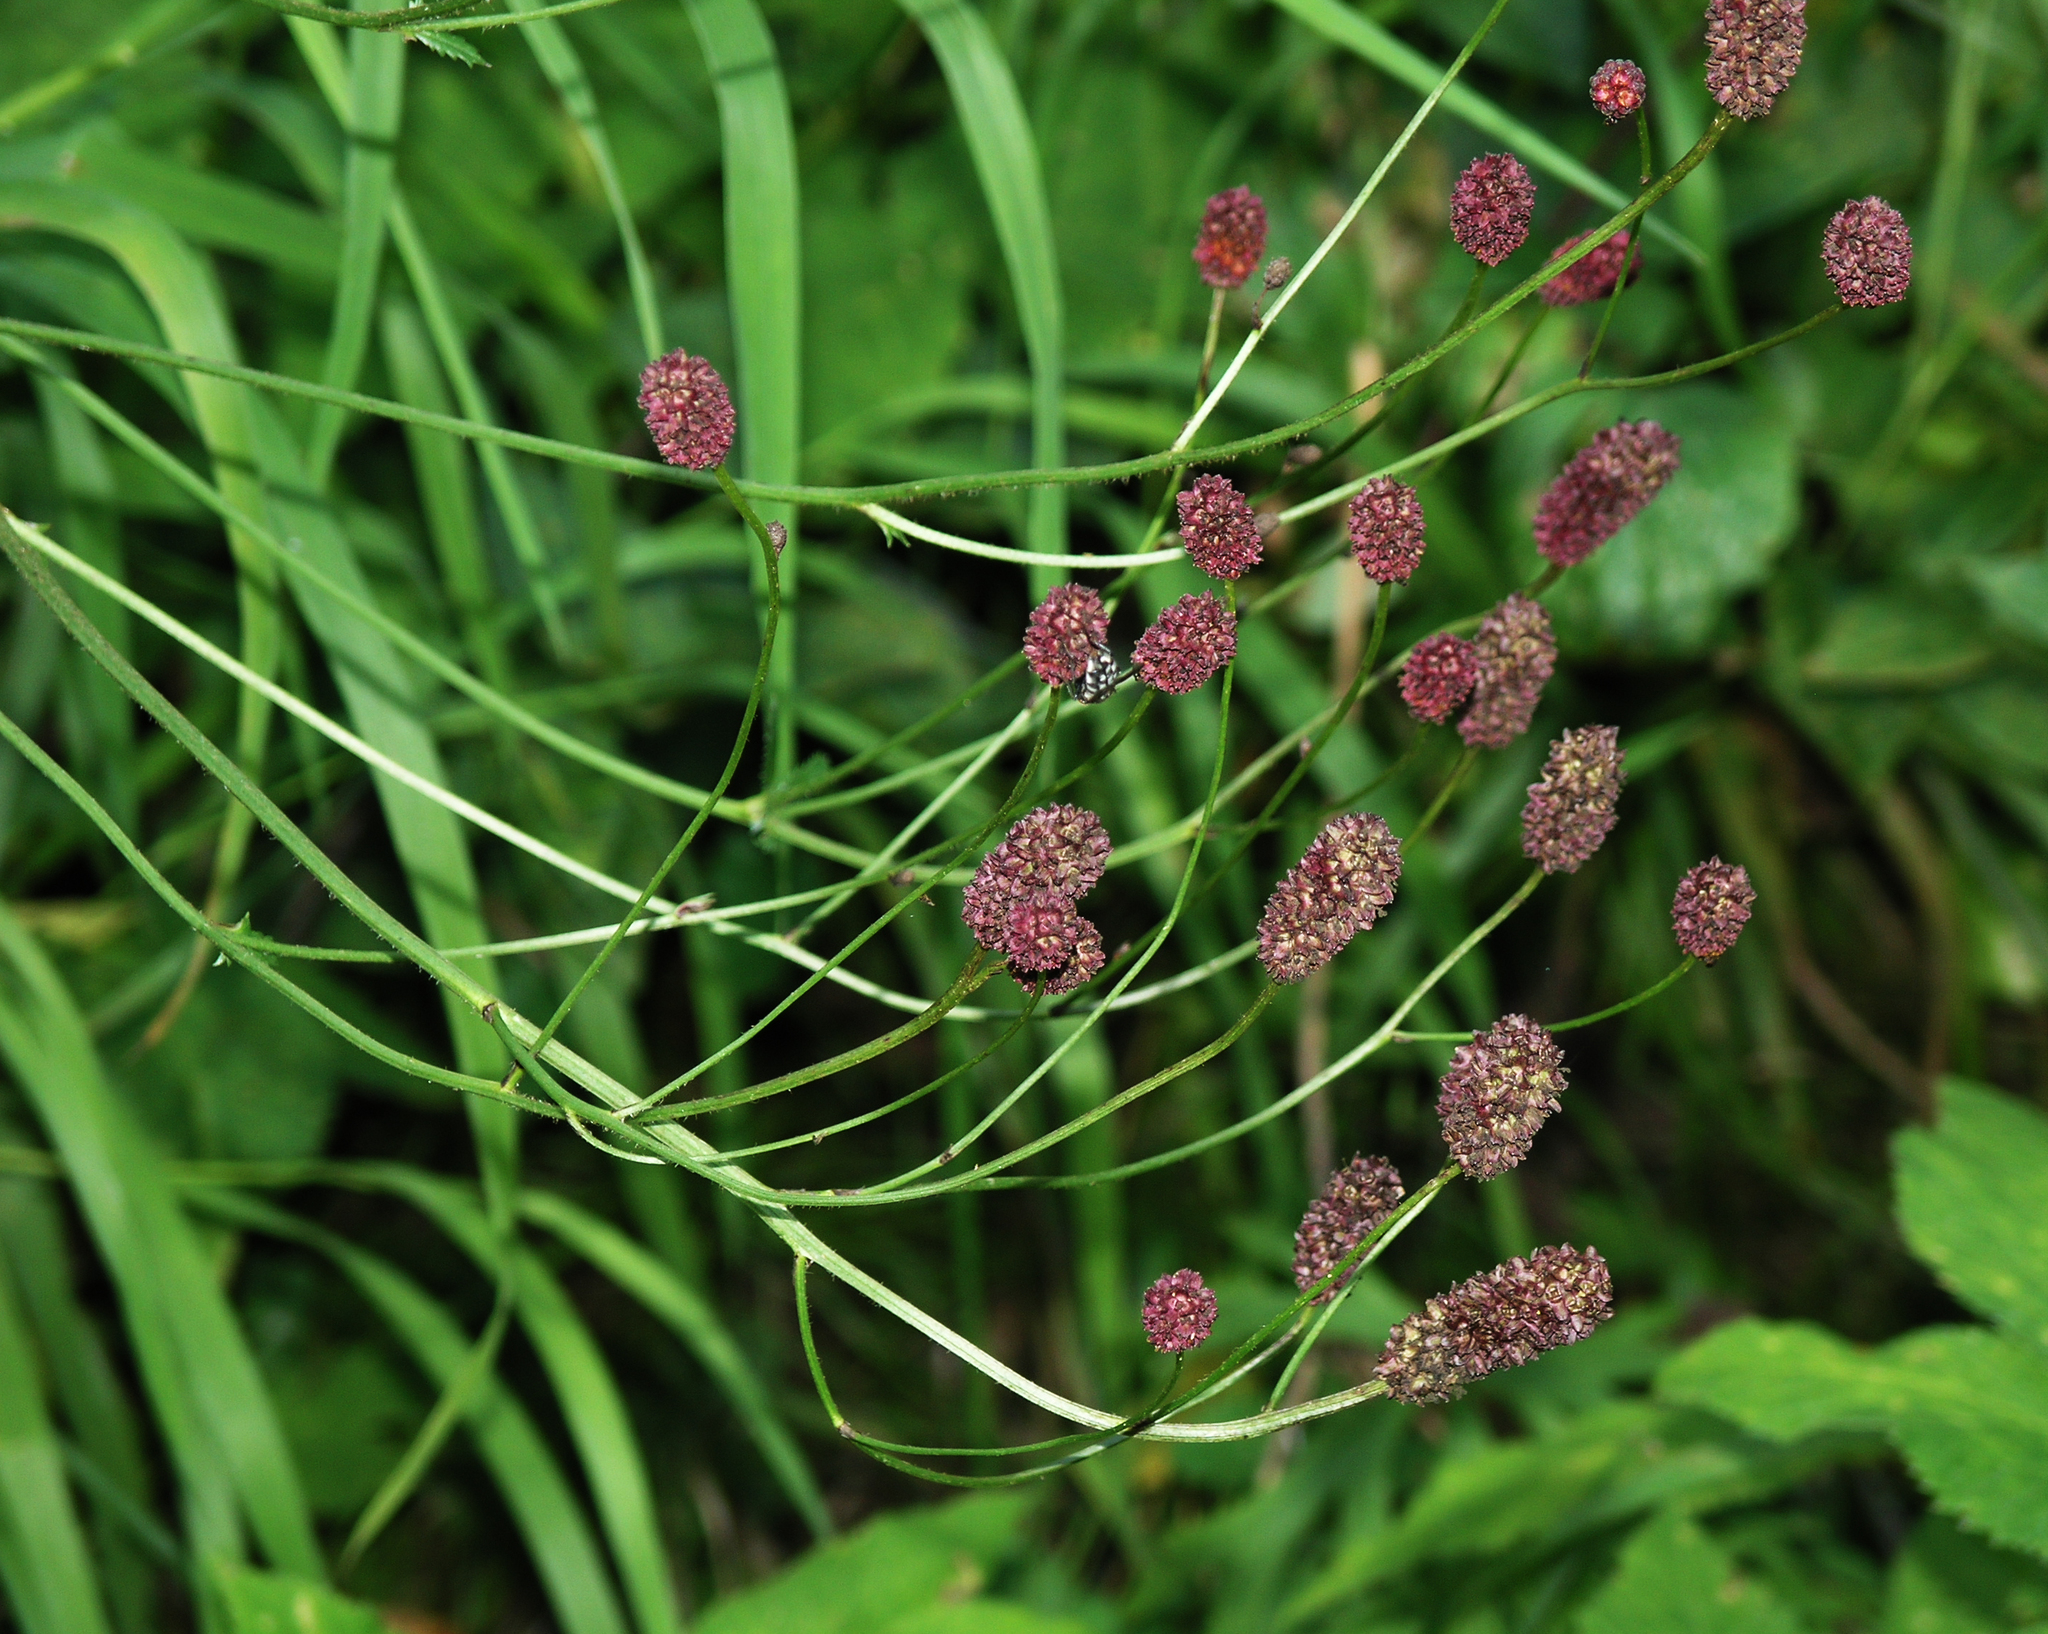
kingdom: Plantae
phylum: Tracheophyta
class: Magnoliopsida
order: Rosales
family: Rosaceae
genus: Sanguisorba
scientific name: Sanguisorba officinalis
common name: Great burnet
